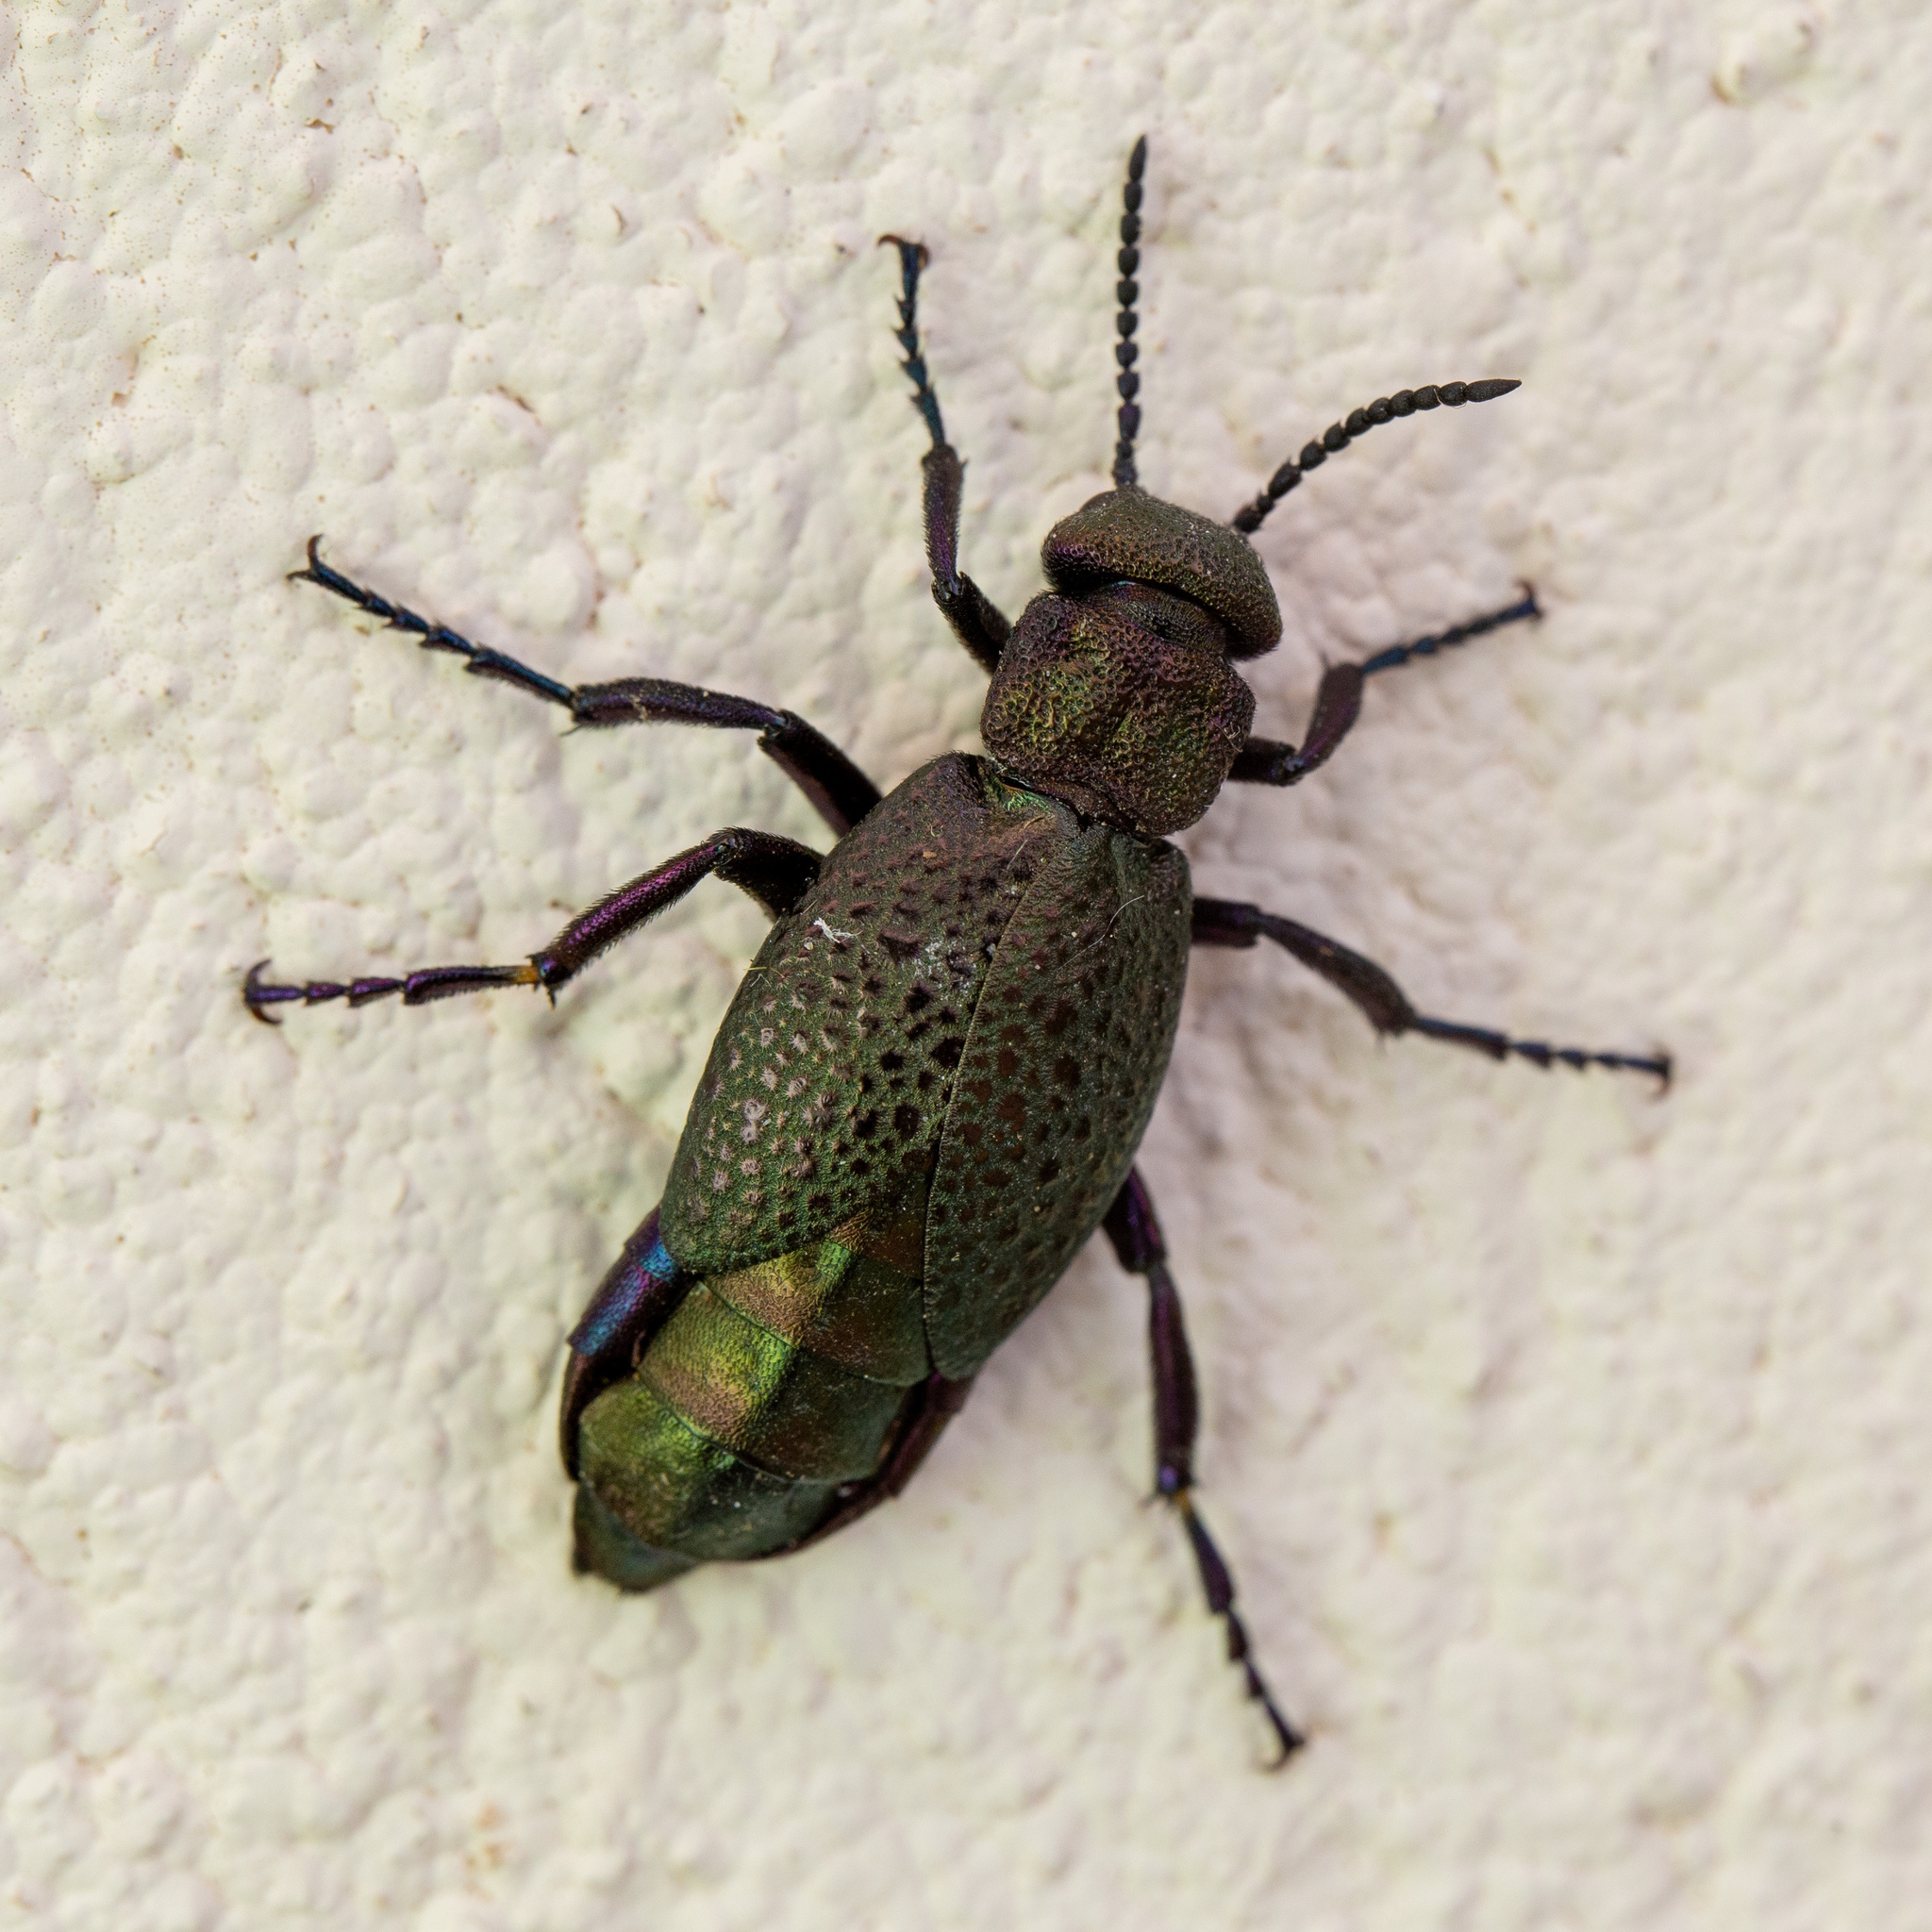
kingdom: Animalia
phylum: Arthropoda
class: Insecta
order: Coleoptera
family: Meloidae
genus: Meloe
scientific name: Meloe cavensis
